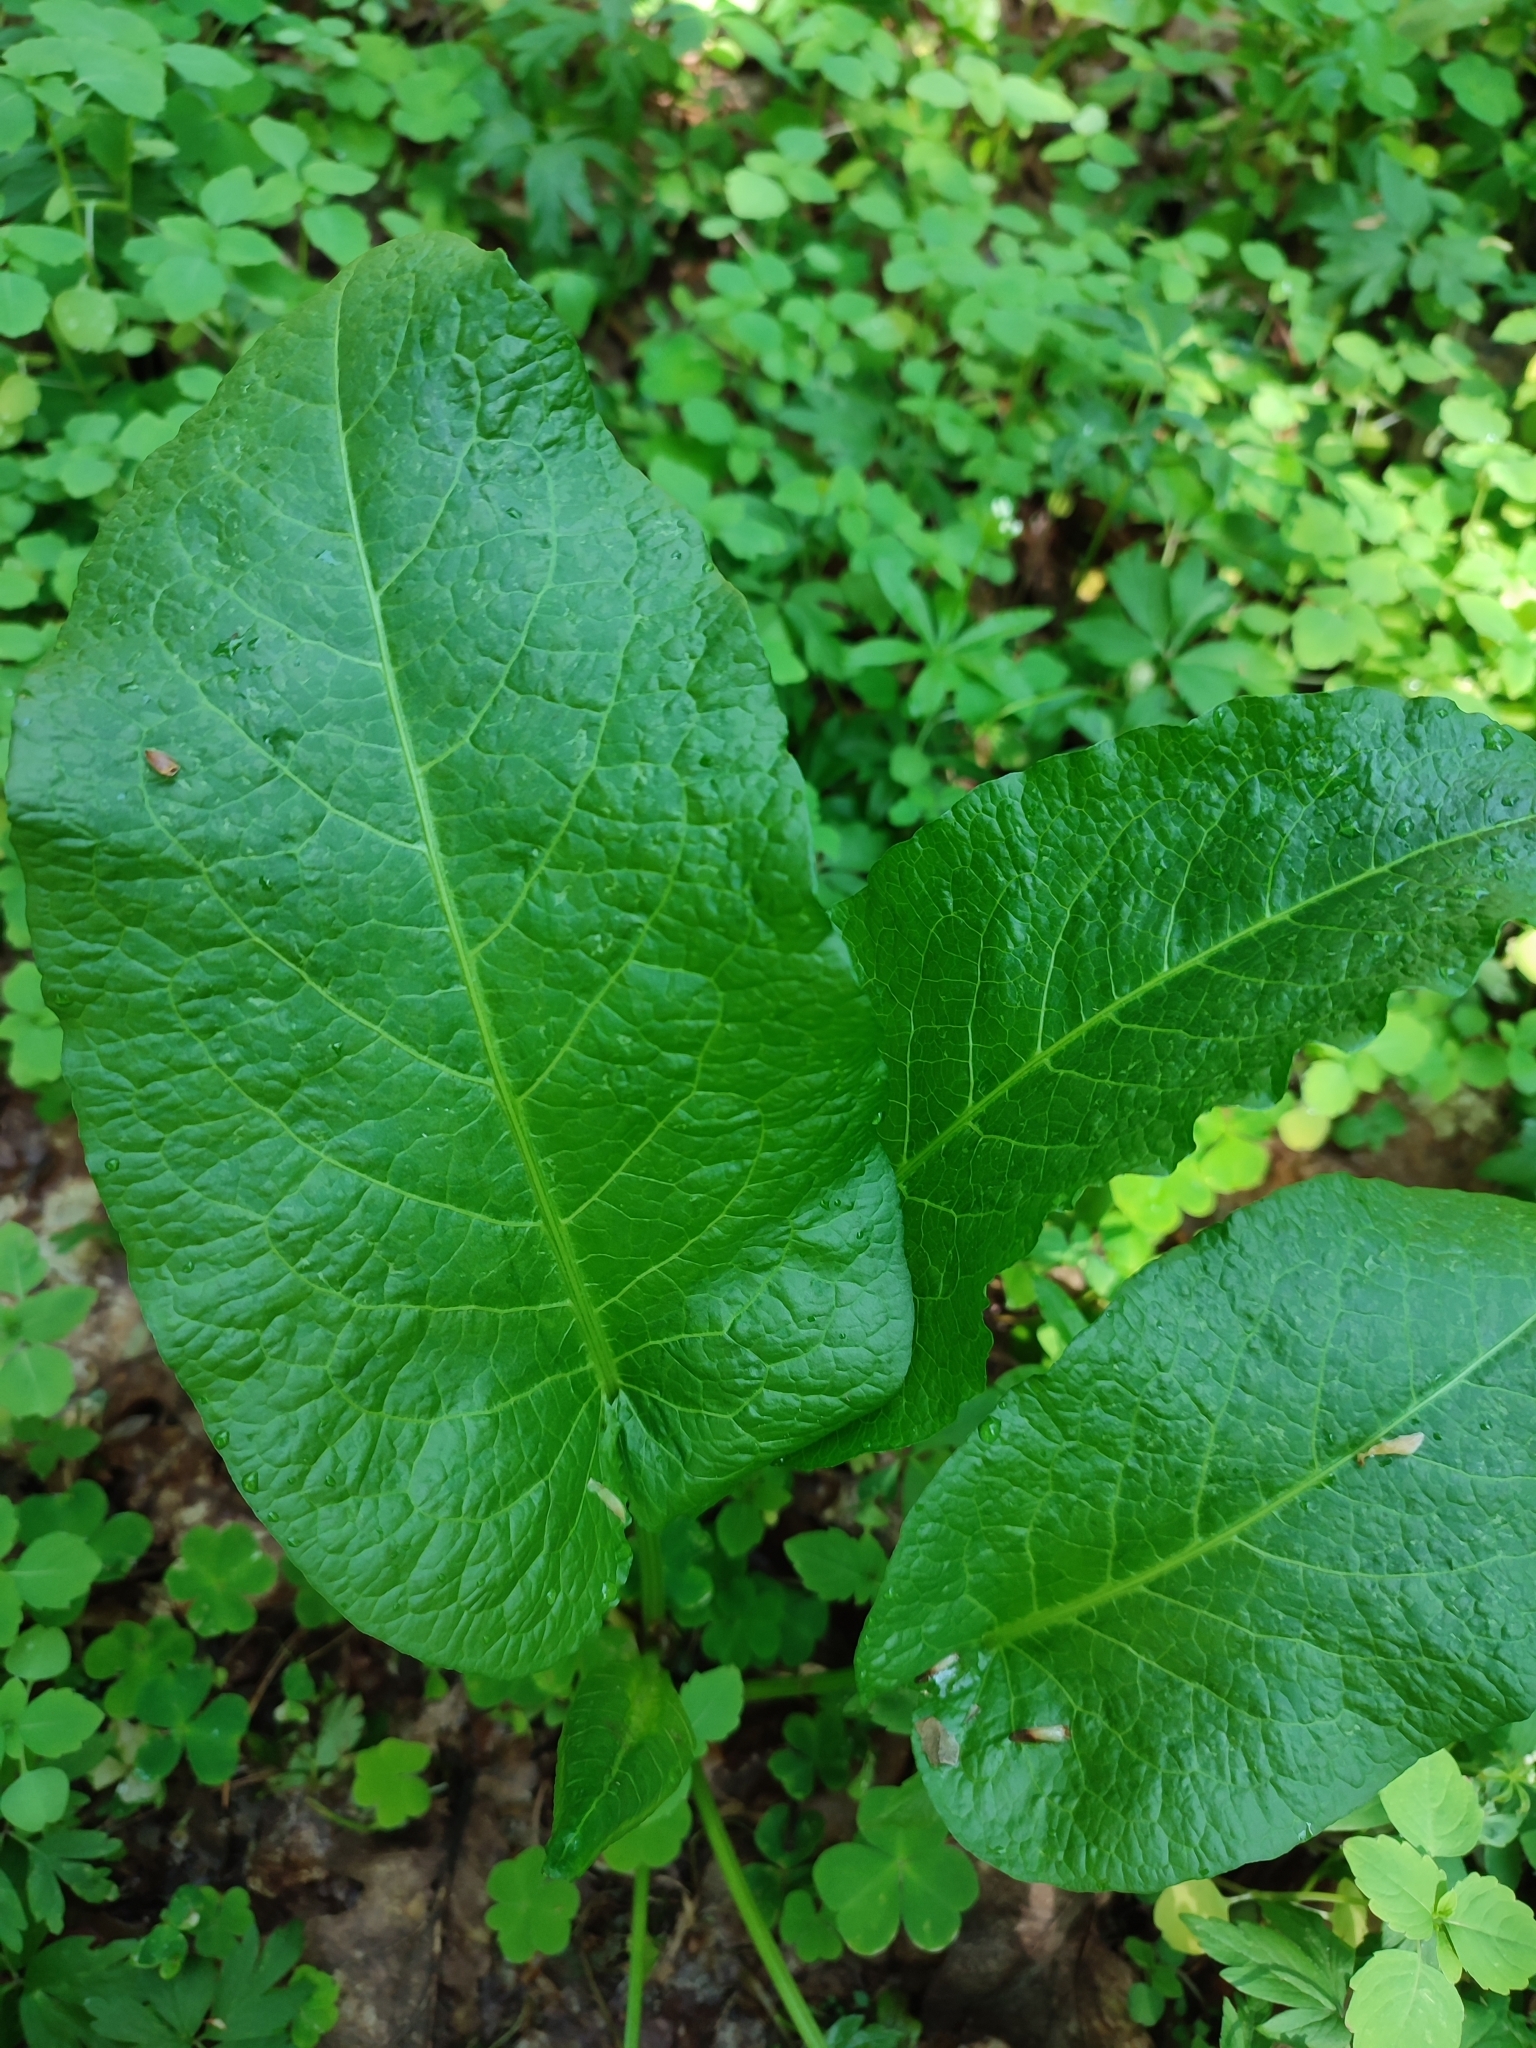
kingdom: Plantae
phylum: Tracheophyta
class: Magnoliopsida
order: Caryophyllales
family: Polygonaceae
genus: Rumex
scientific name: Rumex obtusifolius
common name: Bitter dock
